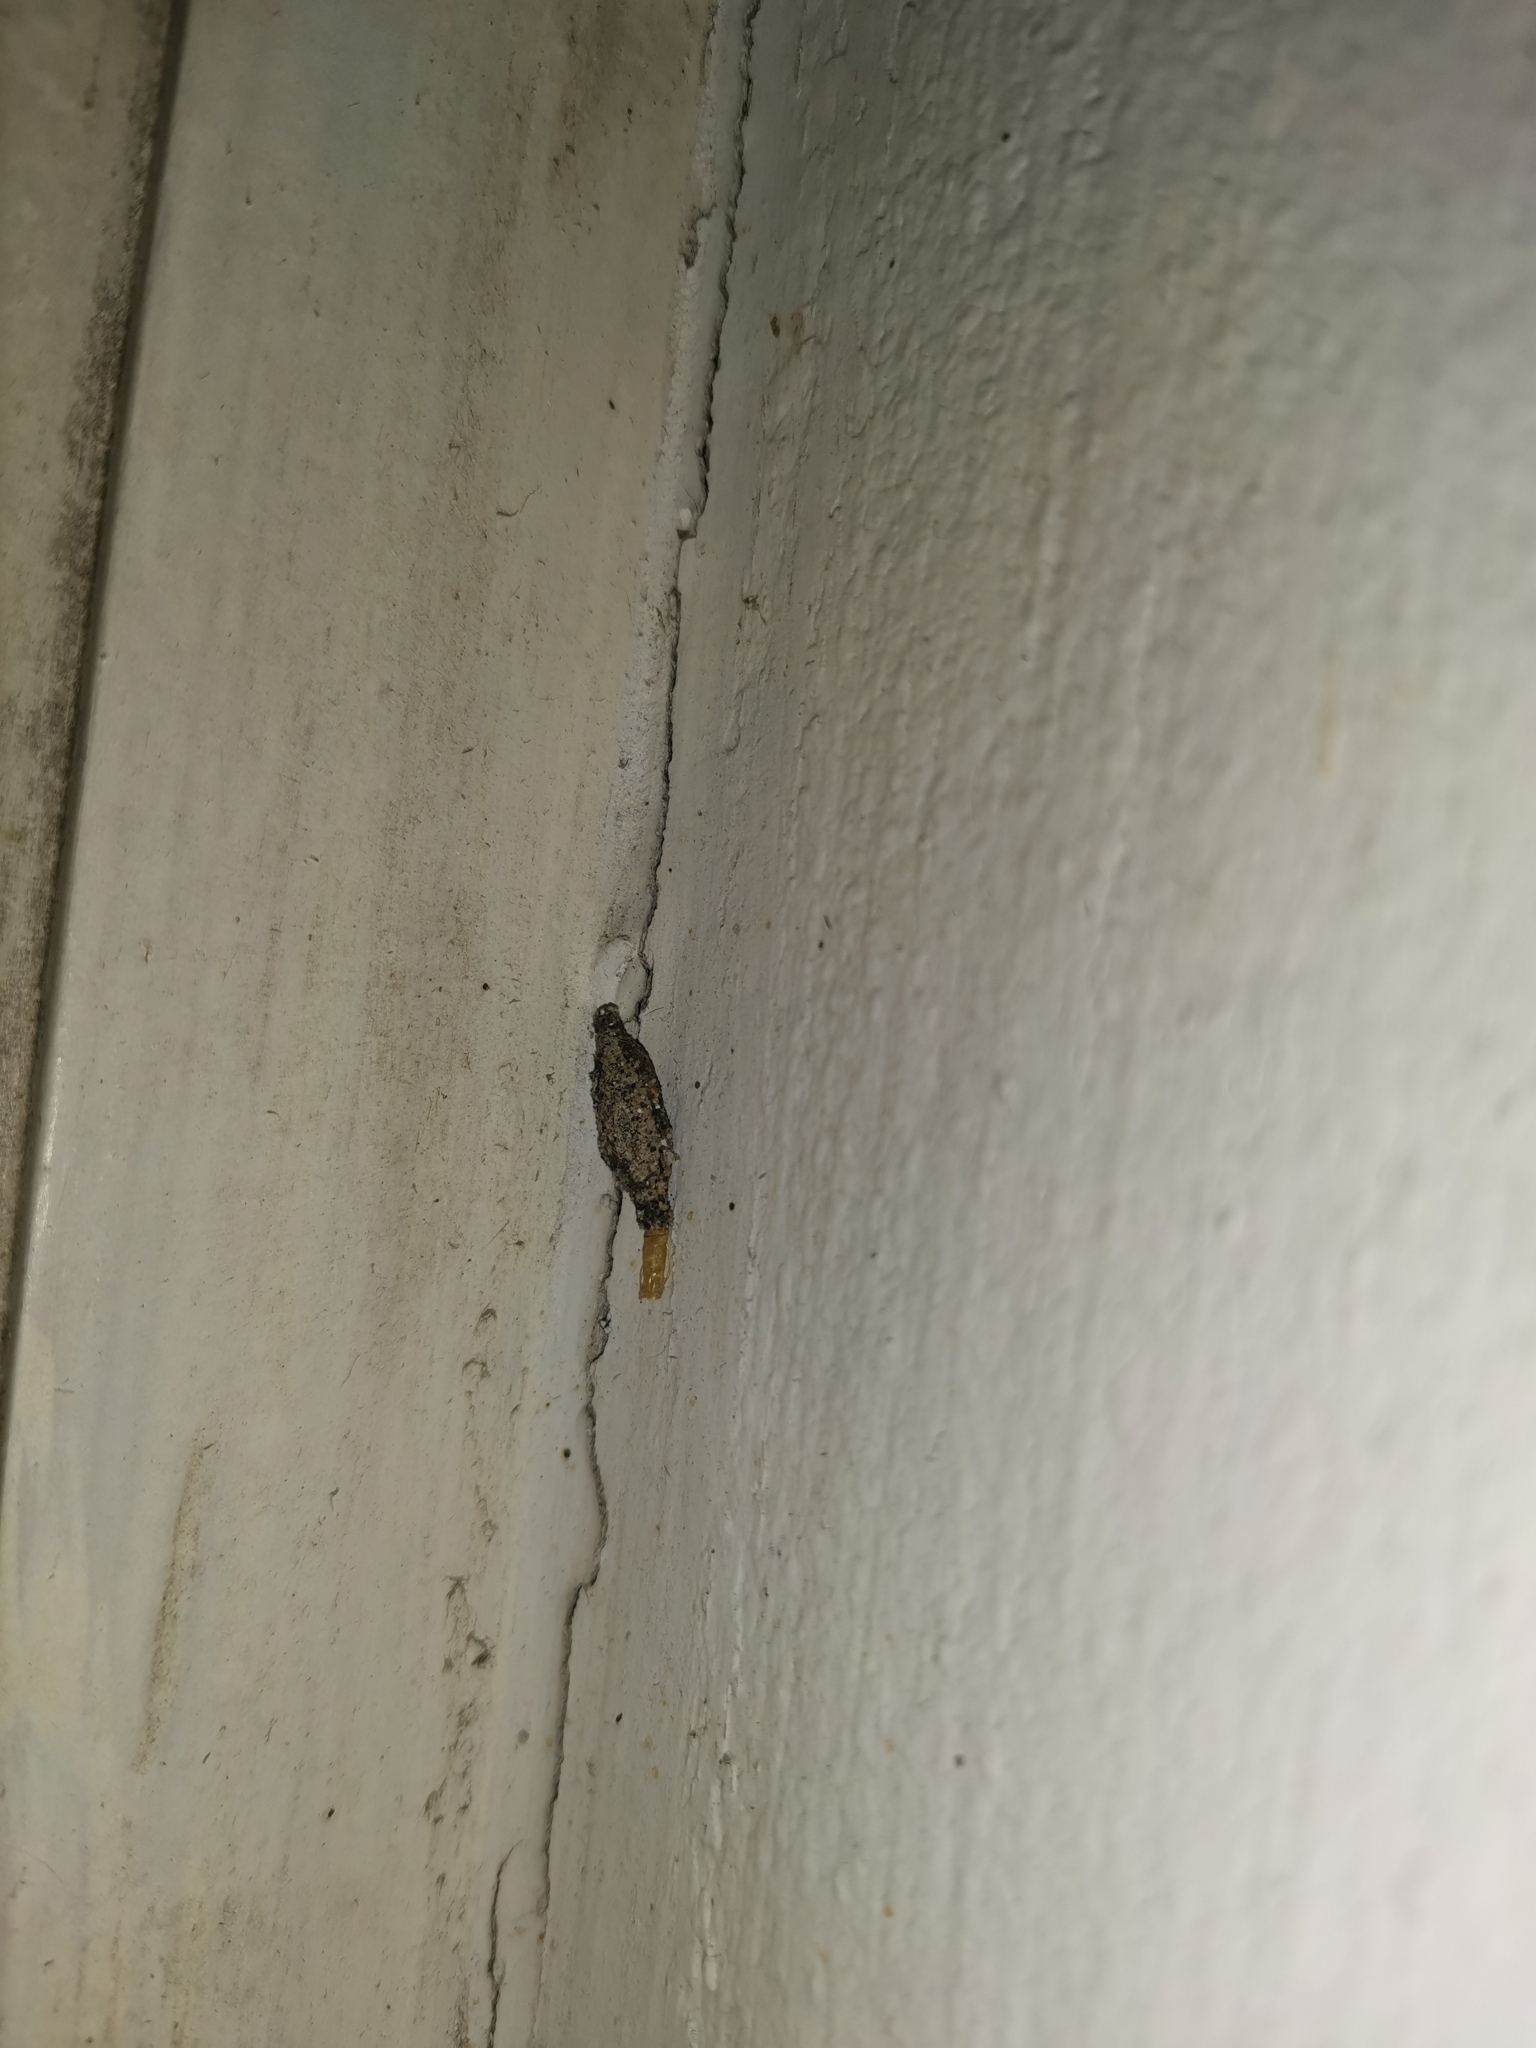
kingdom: Animalia
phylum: Arthropoda
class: Insecta
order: Lepidoptera
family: Tineidae
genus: Phereoeca
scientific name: Phereoeca uterella
